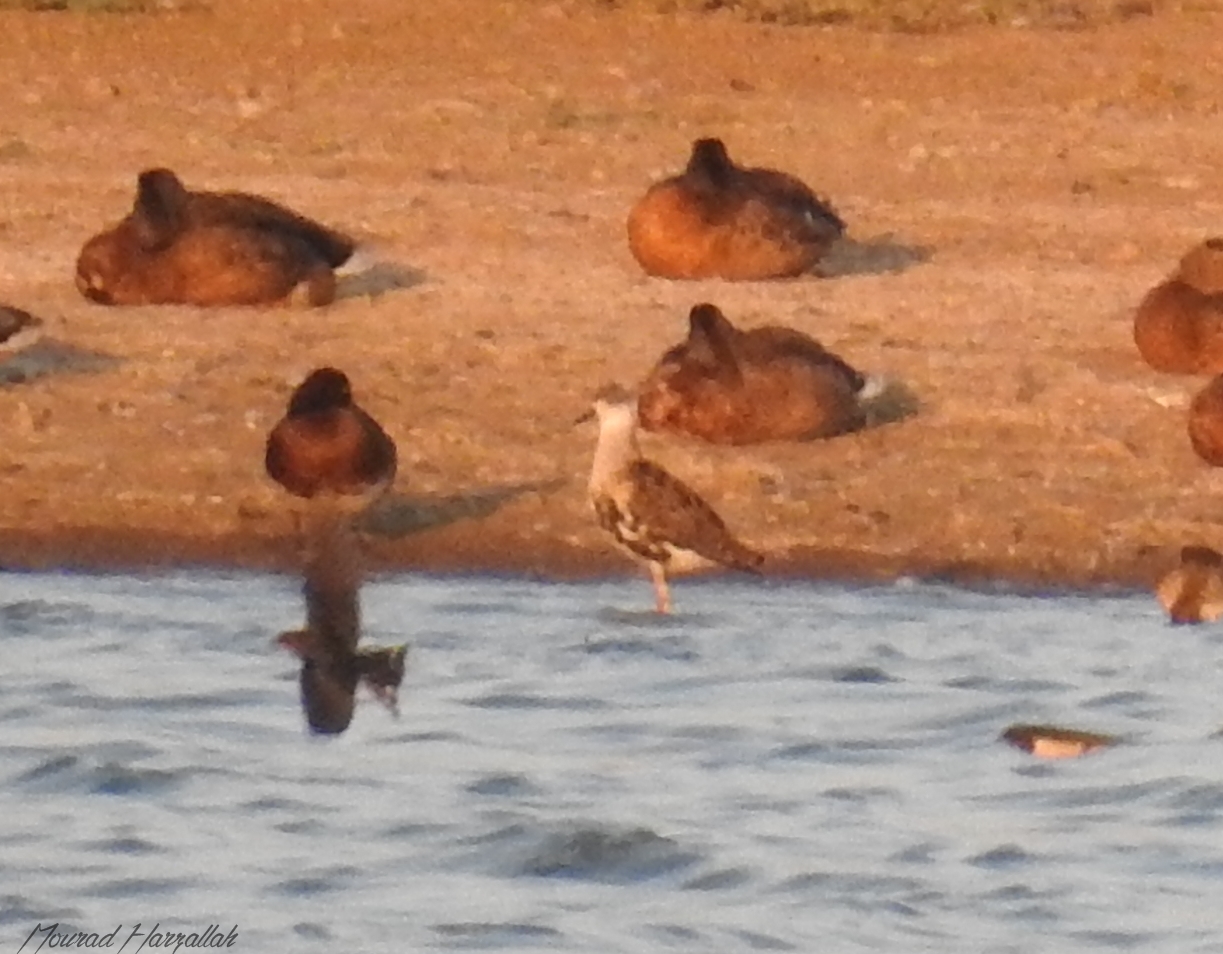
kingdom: Animalia
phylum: Chordata
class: Aves
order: Charadriiformes
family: Scolopacidae
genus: Calidris
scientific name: Calidris pugnax
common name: Ruff
